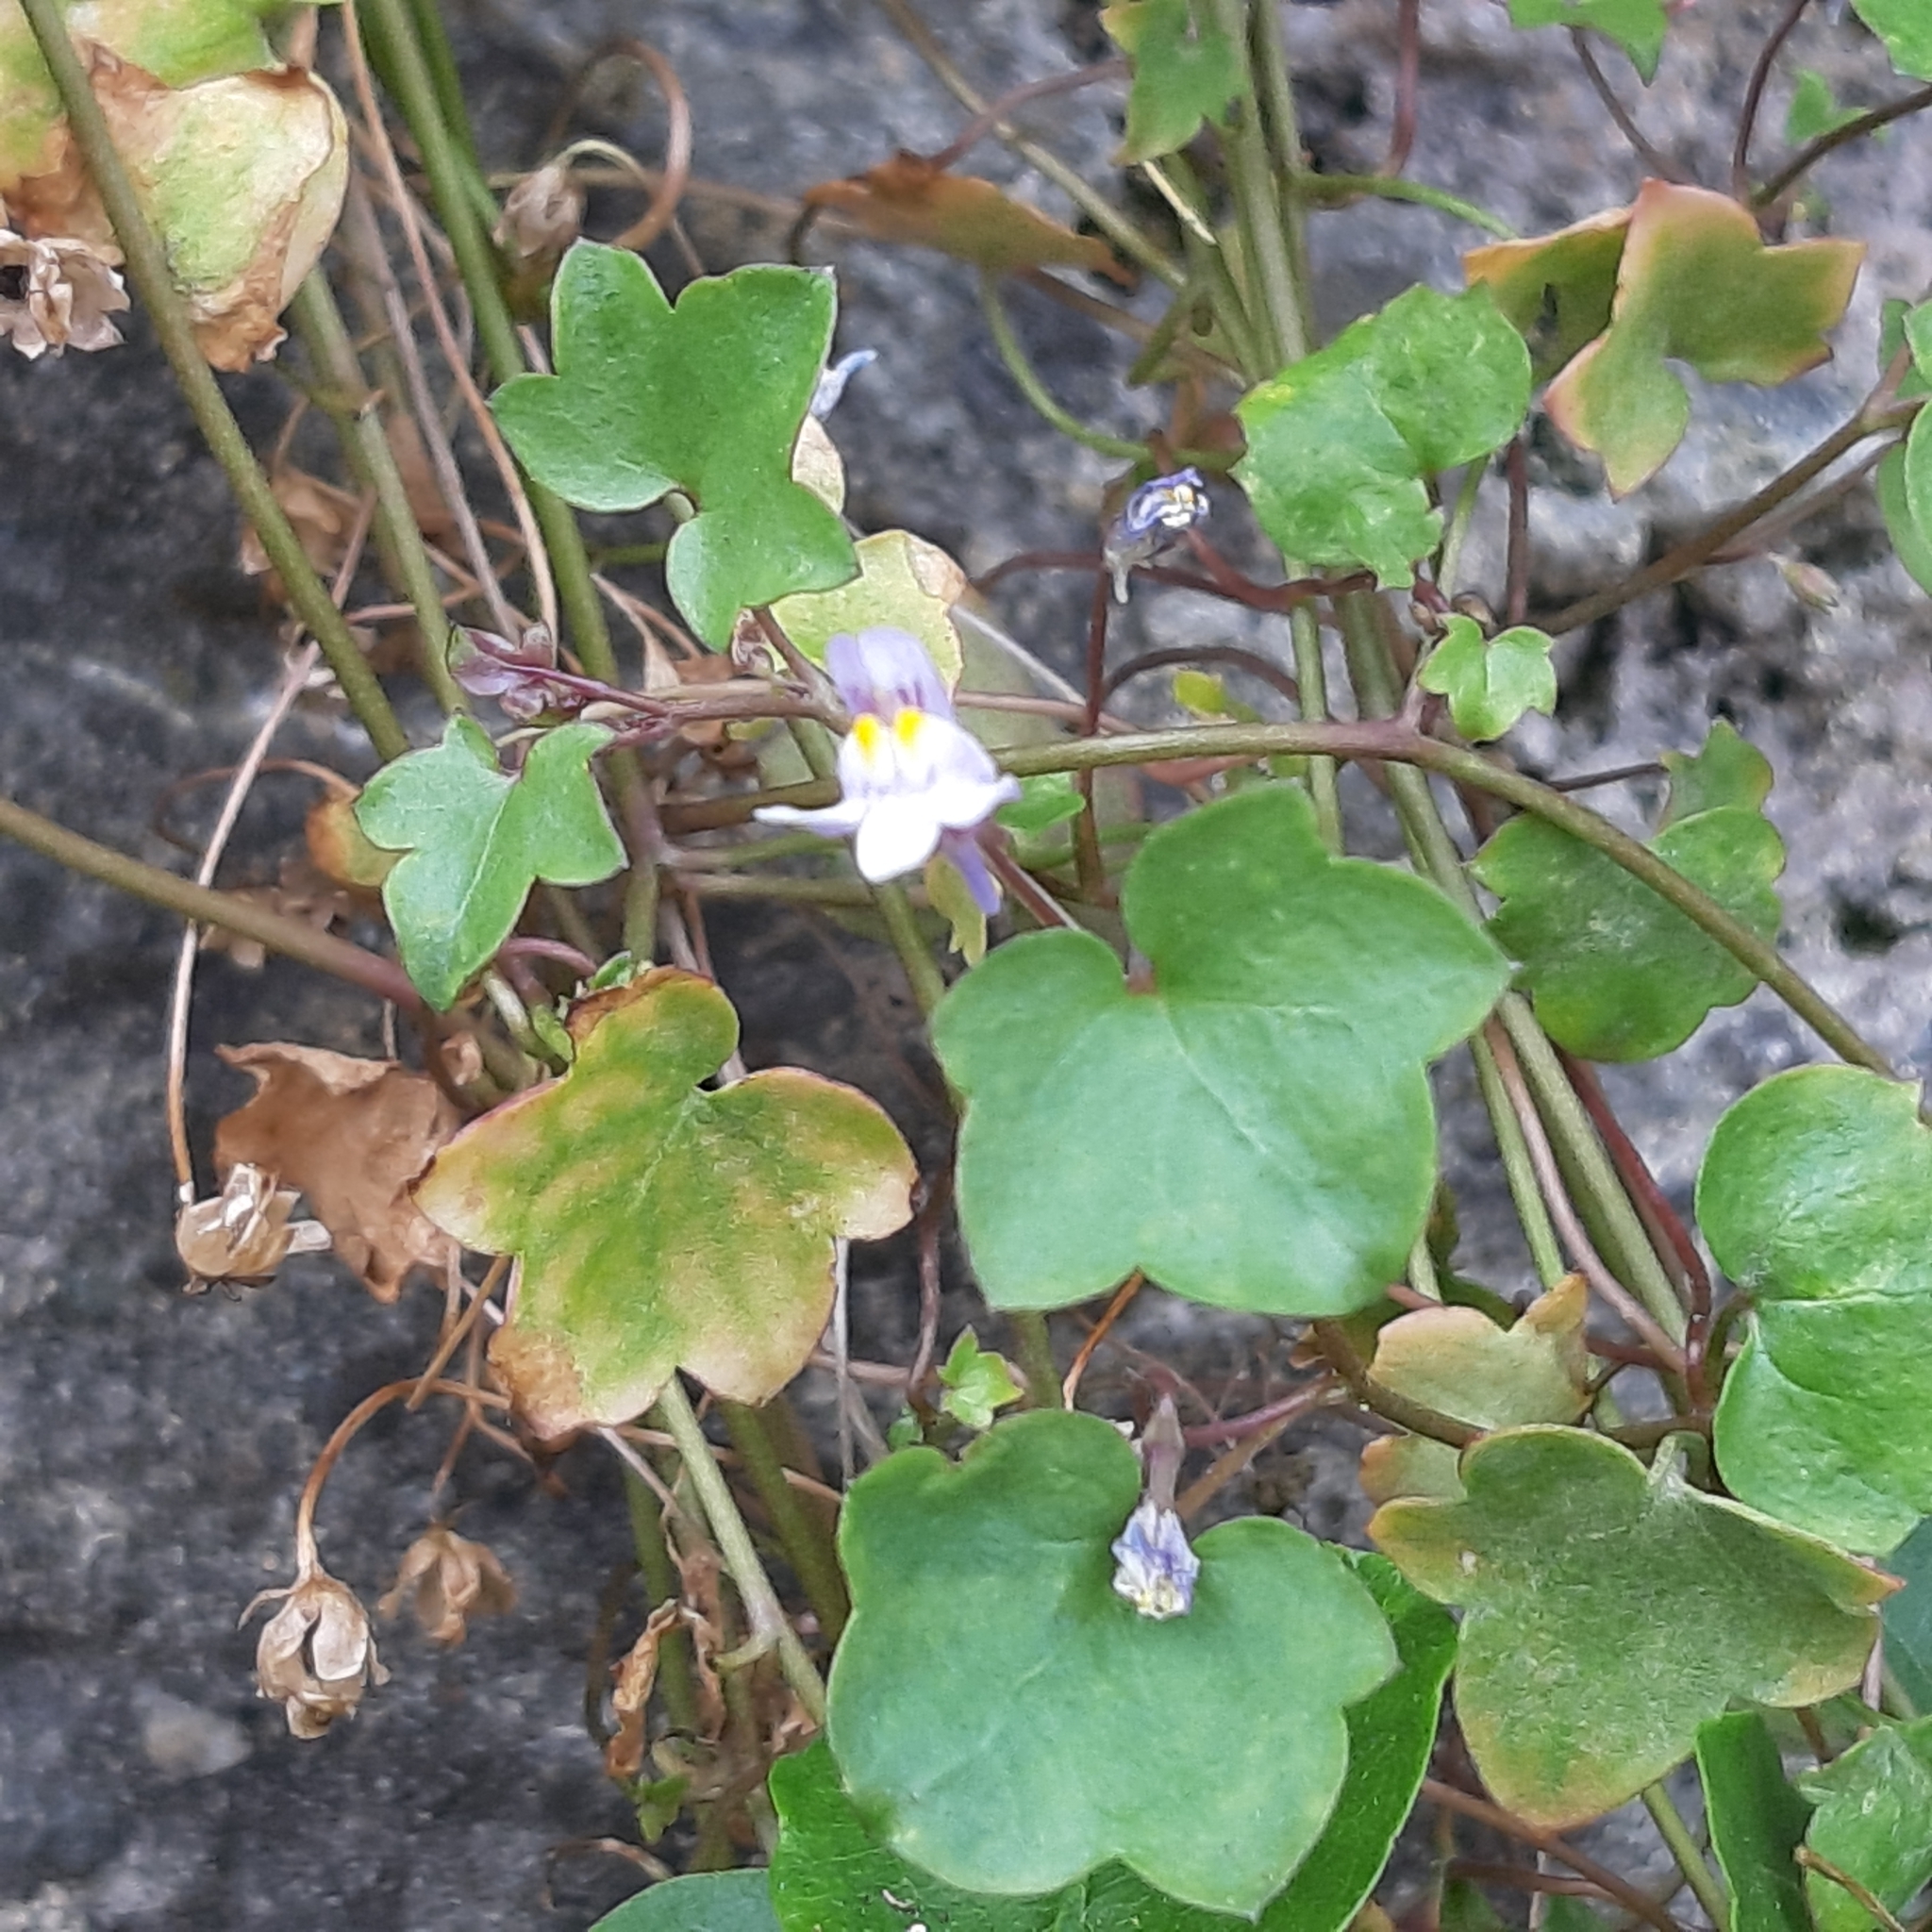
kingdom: Plantae
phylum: Tracheophyta
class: Magnoliopsida
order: Lamiales
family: Plantaginaceae
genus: Cymbalaria
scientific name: Cymbalaria muralis
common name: Ivy-leaved toadflax
